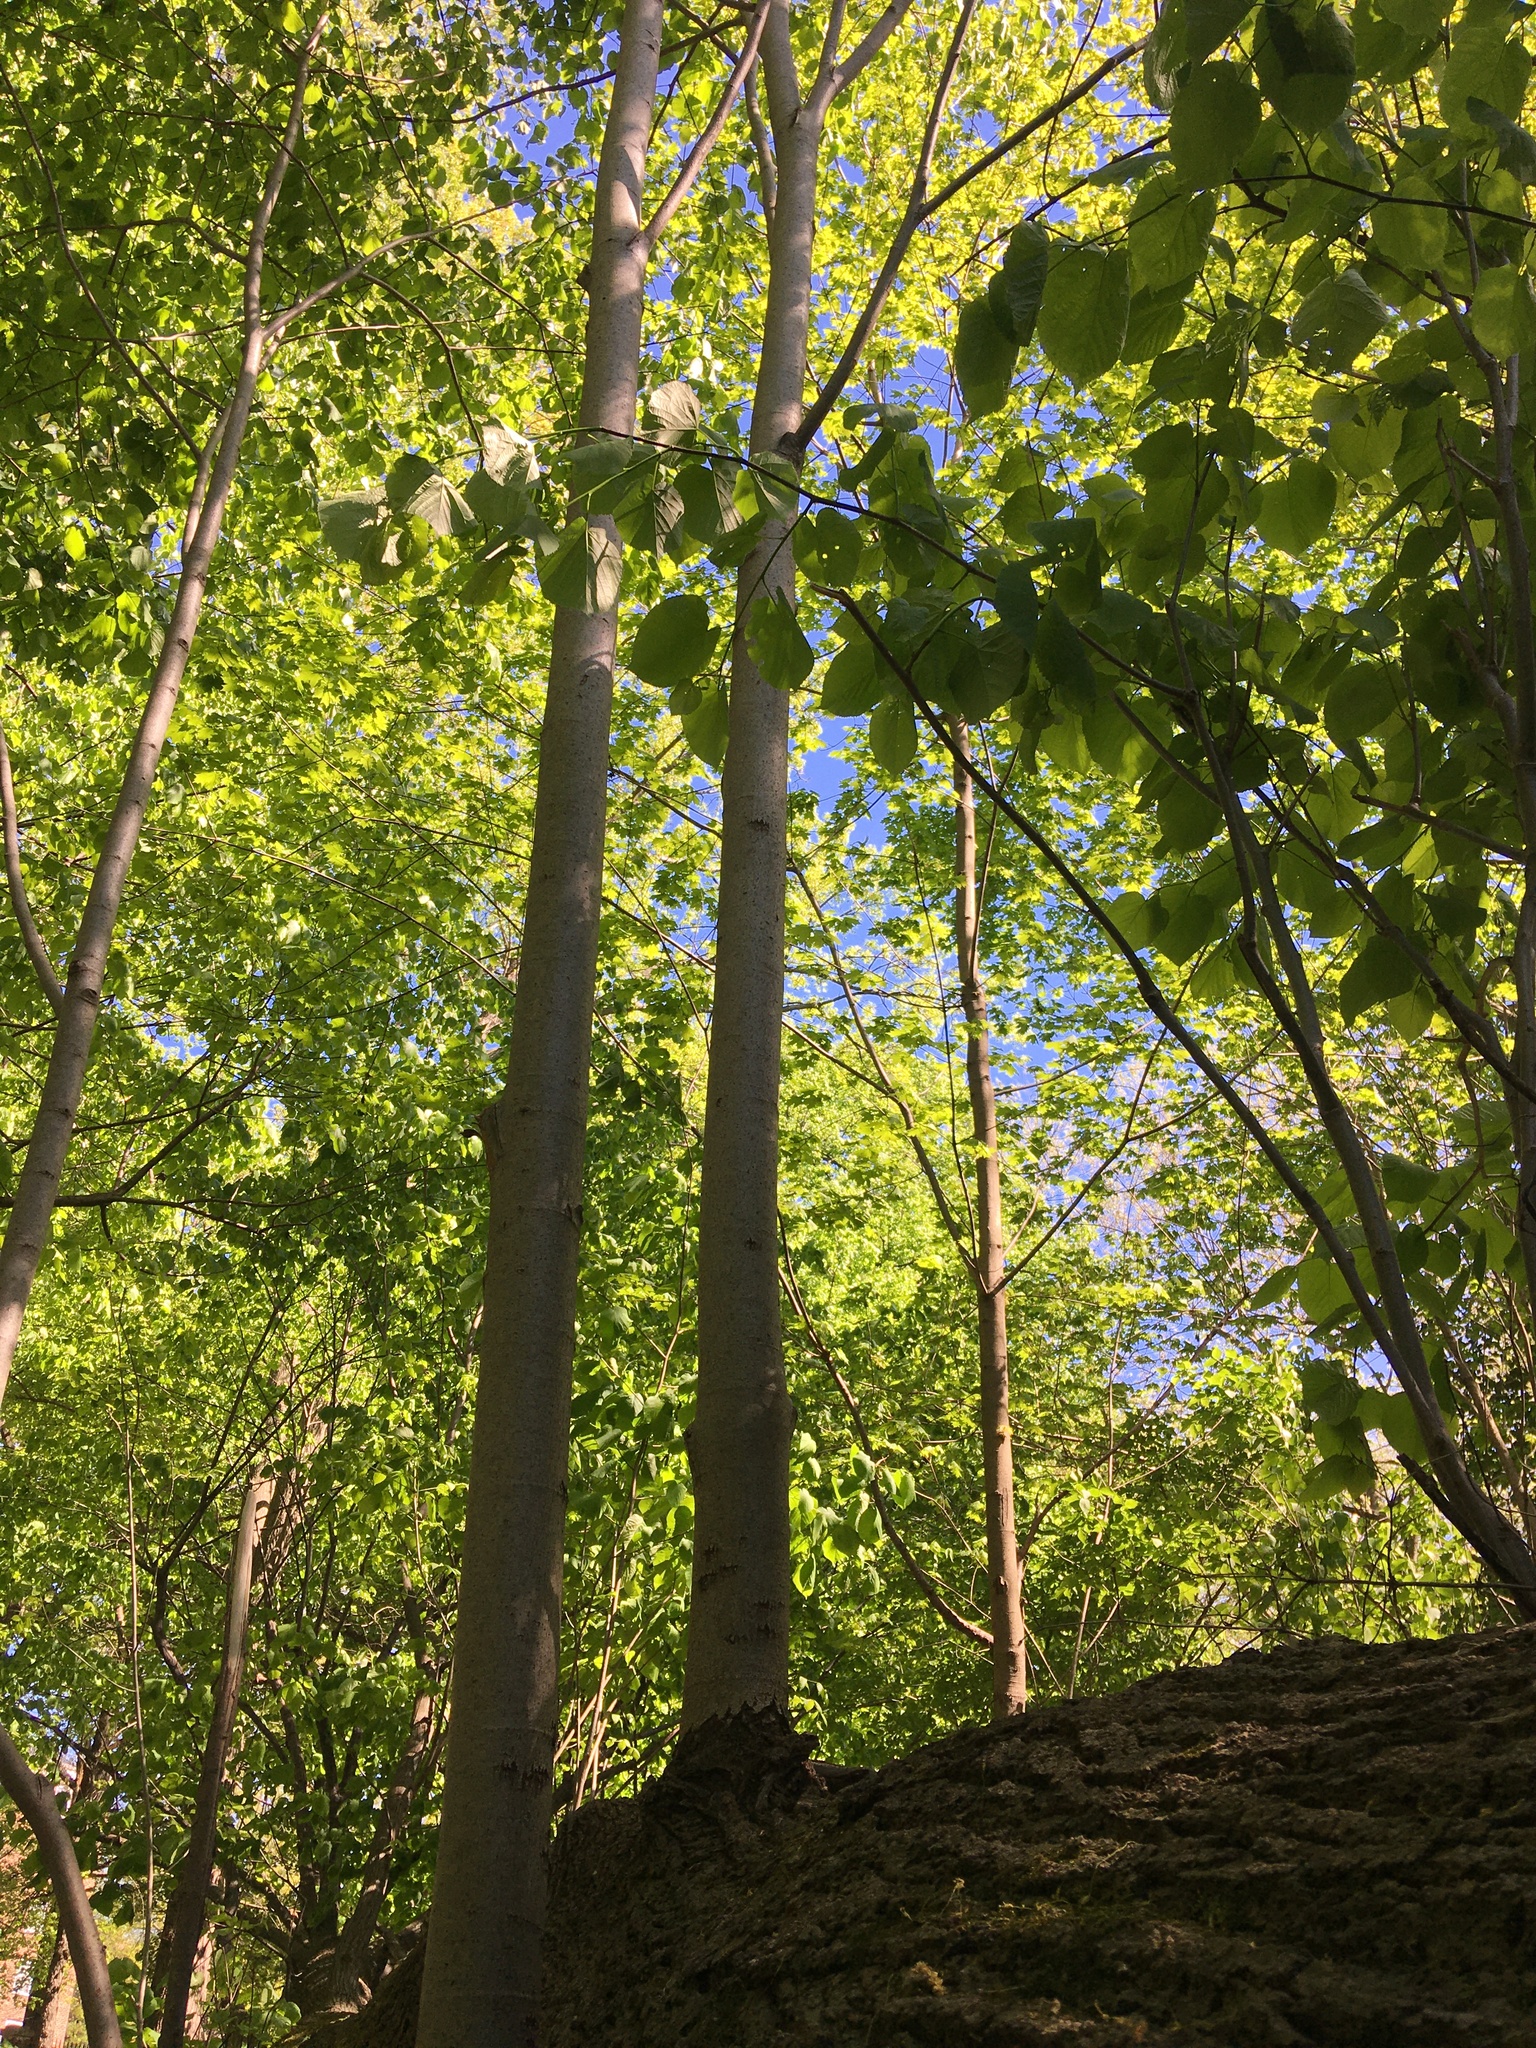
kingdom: Plantae
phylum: Tracheophyta
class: Magnoliopsida
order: Malvales
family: Malvaceae
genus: Tilia
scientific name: Tilia americana
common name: Basswood
